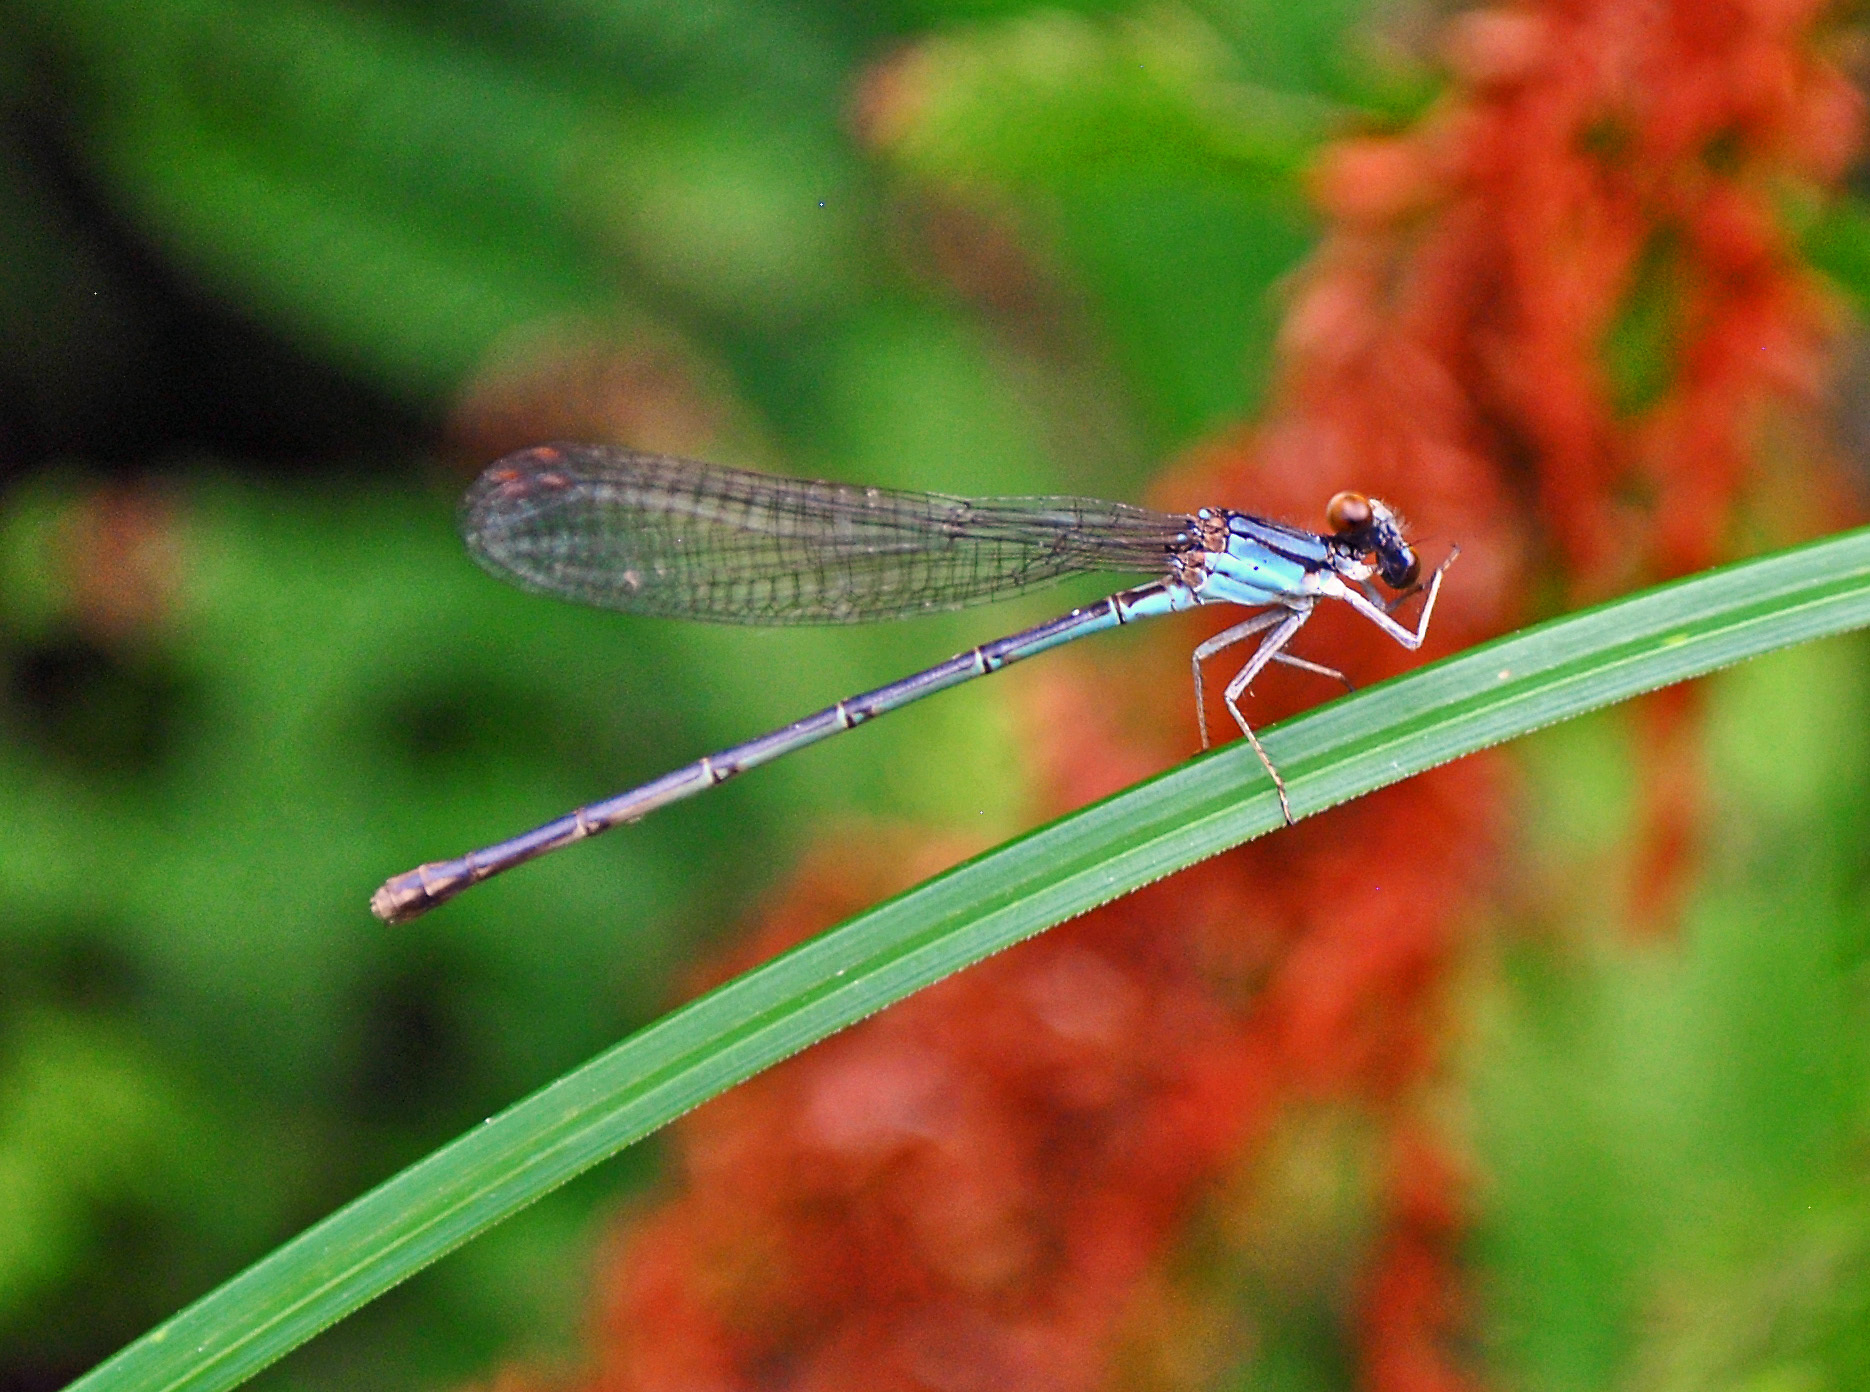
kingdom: Animalia
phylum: Arthropoda
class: Insecta
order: Odonata
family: Coenagrionidae
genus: Argia
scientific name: Argia apicalis
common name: Blue-fronted dancer
